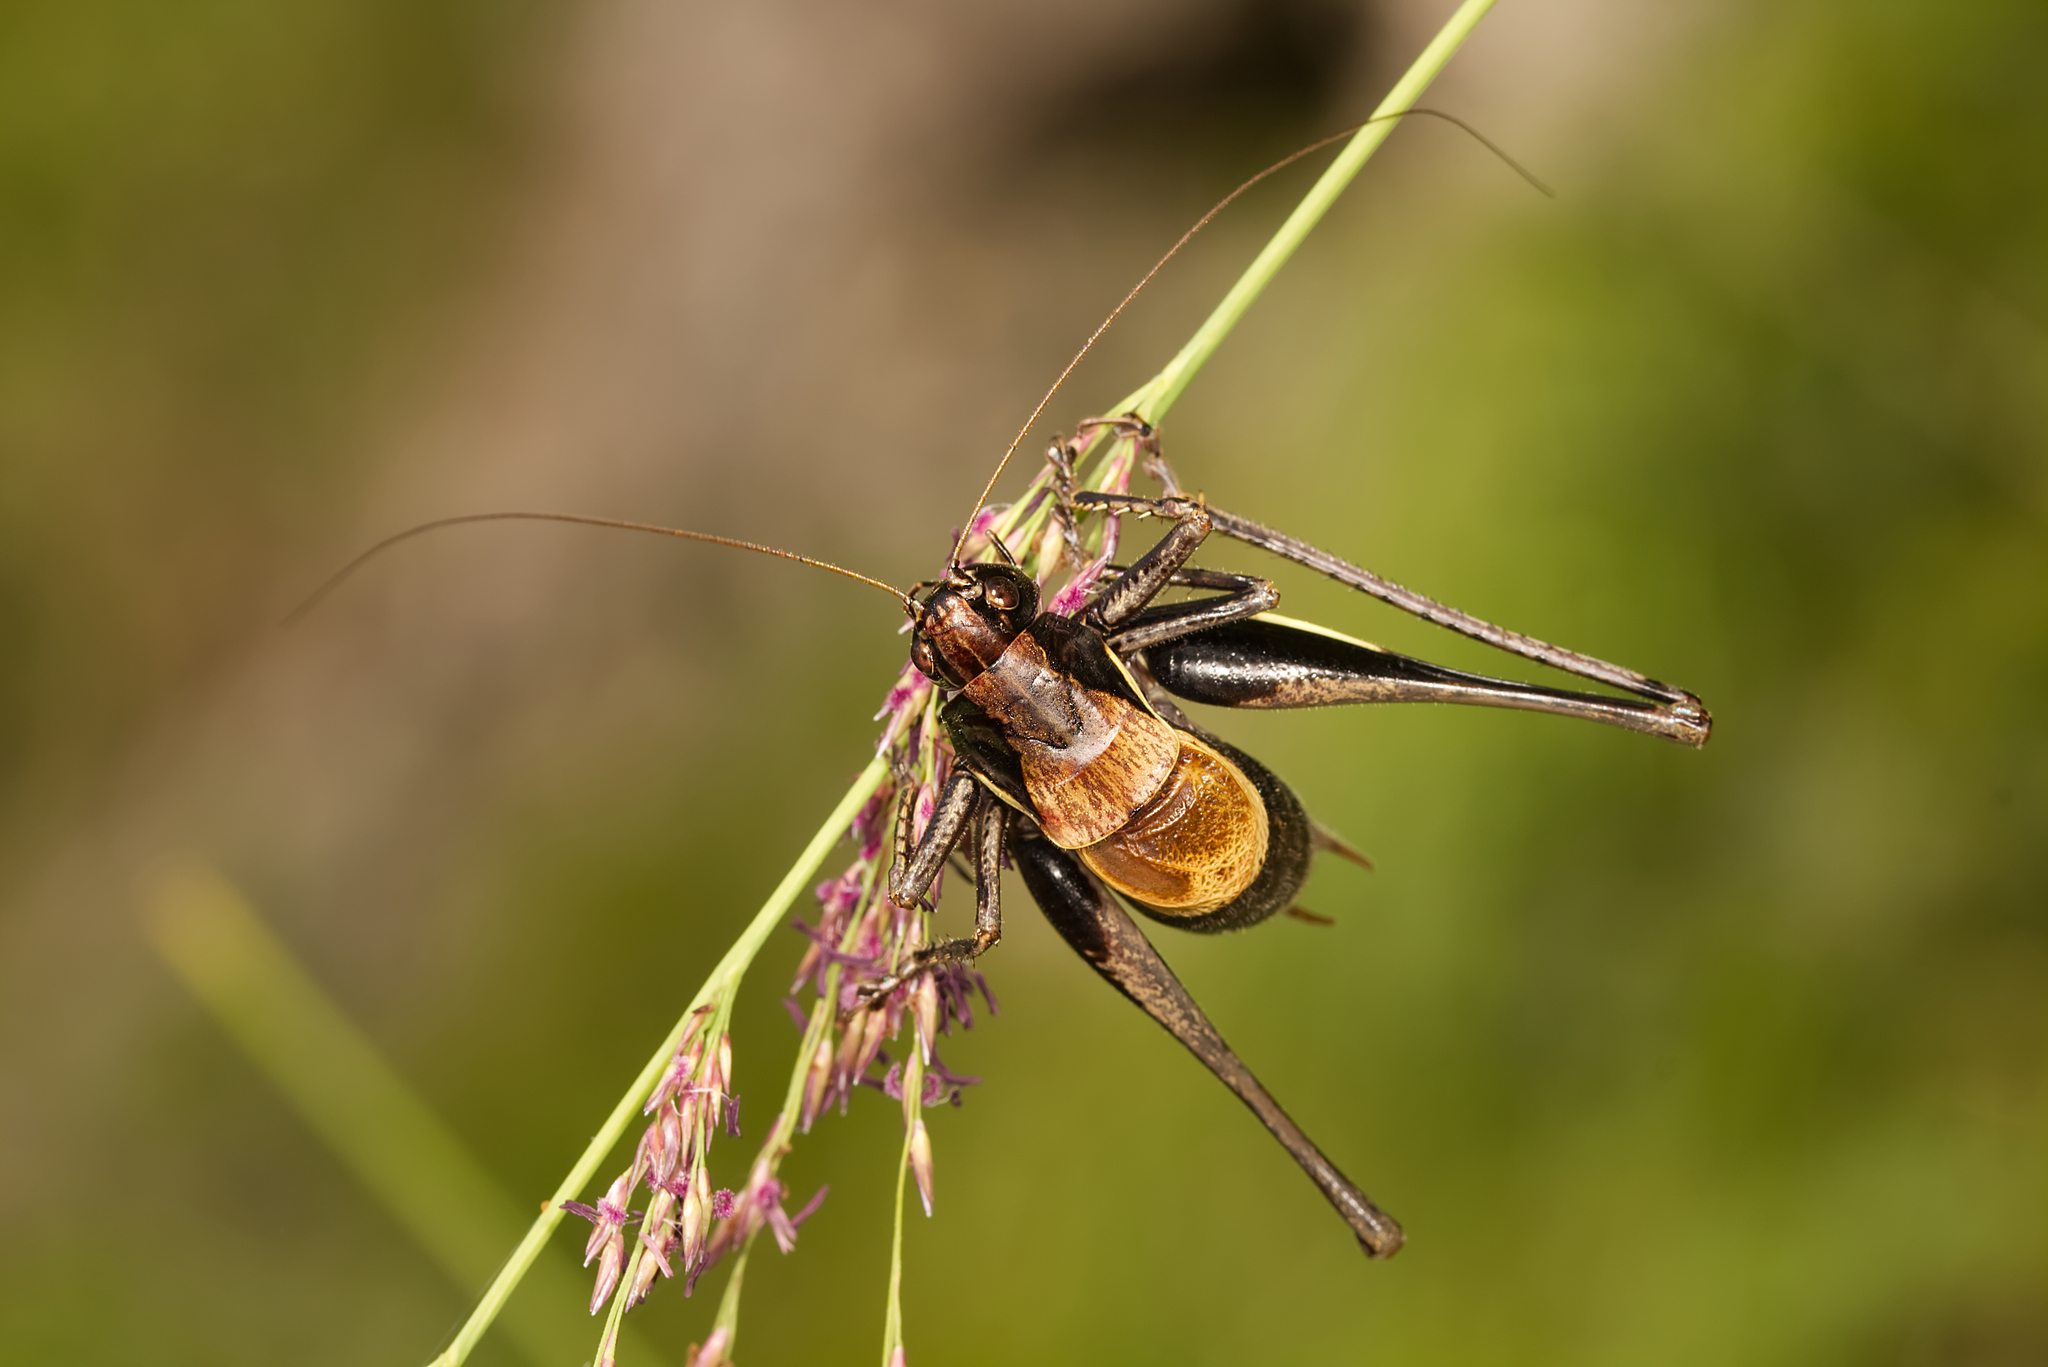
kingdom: Animalia
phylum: Arthropoda
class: Insecta
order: Orthoptera
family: Tettigoniidae
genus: Pholidoptera
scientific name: Pholidoptera aptera
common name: Alpine dark bush-cricket
